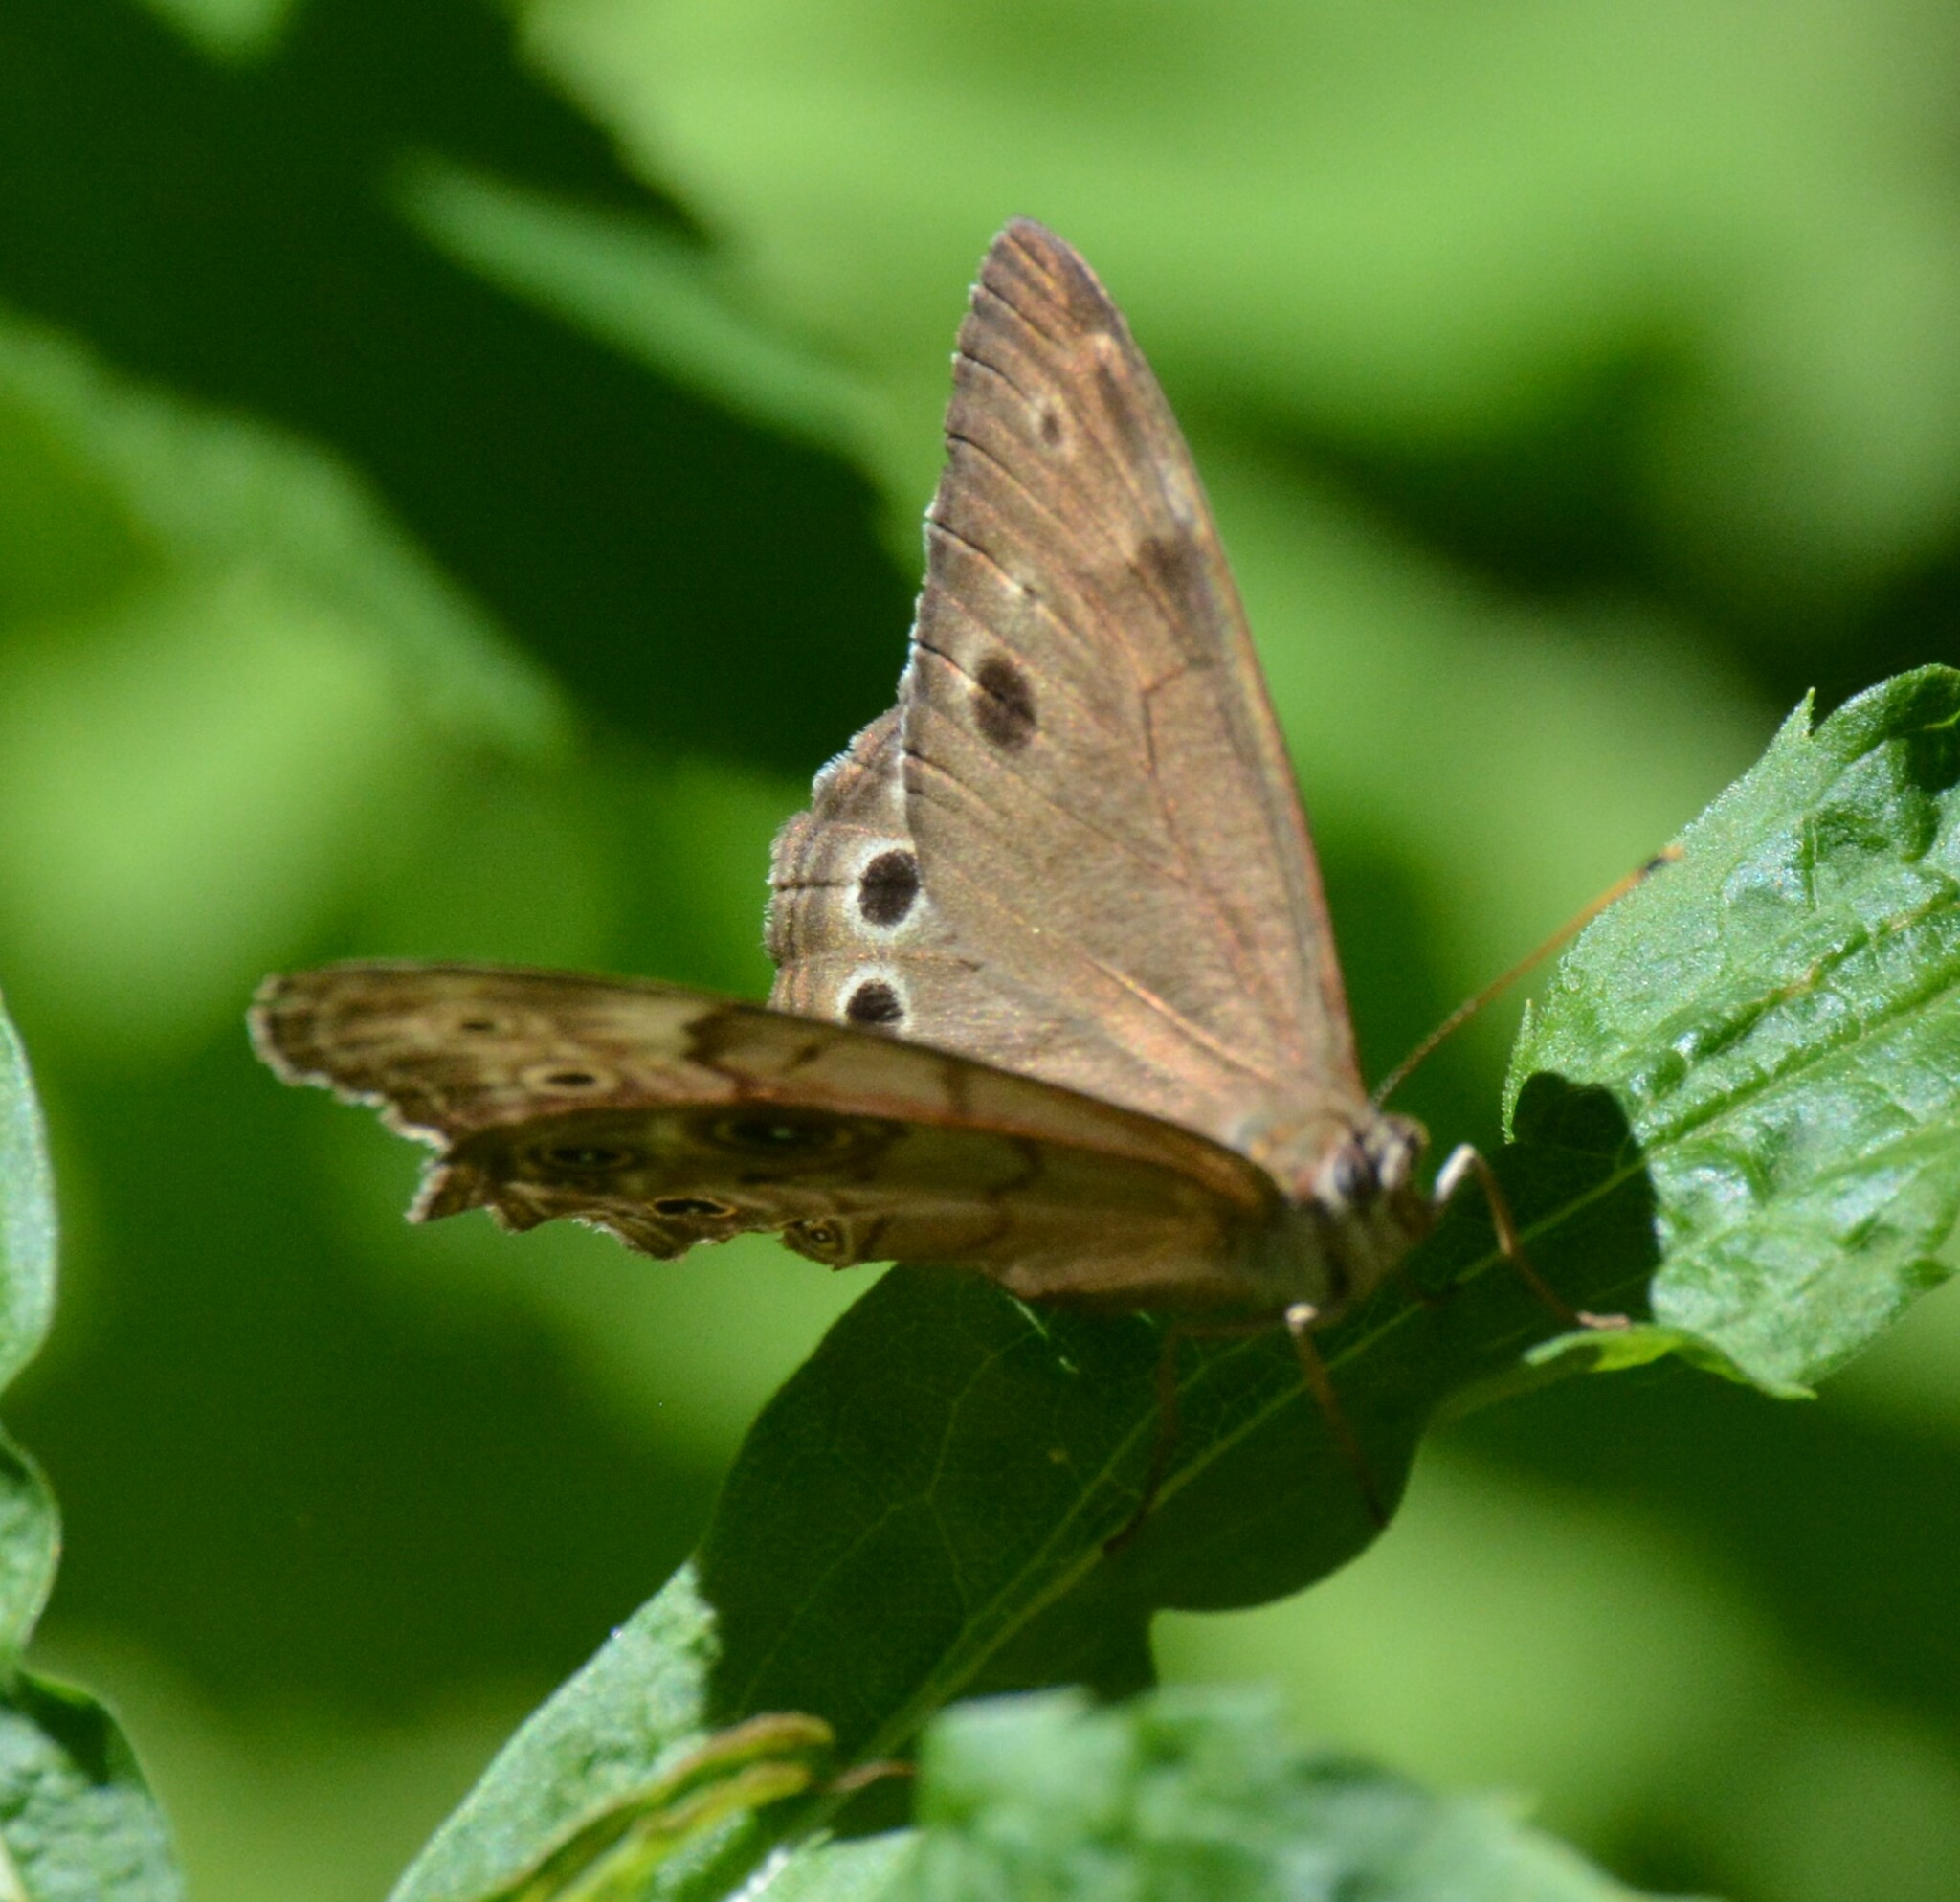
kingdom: Animalia
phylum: Arthropoda
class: Insecta
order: Lepidoptera
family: Nymphalidae
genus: Lethe
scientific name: Lethe anthedon
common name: Northern pearly-eye
